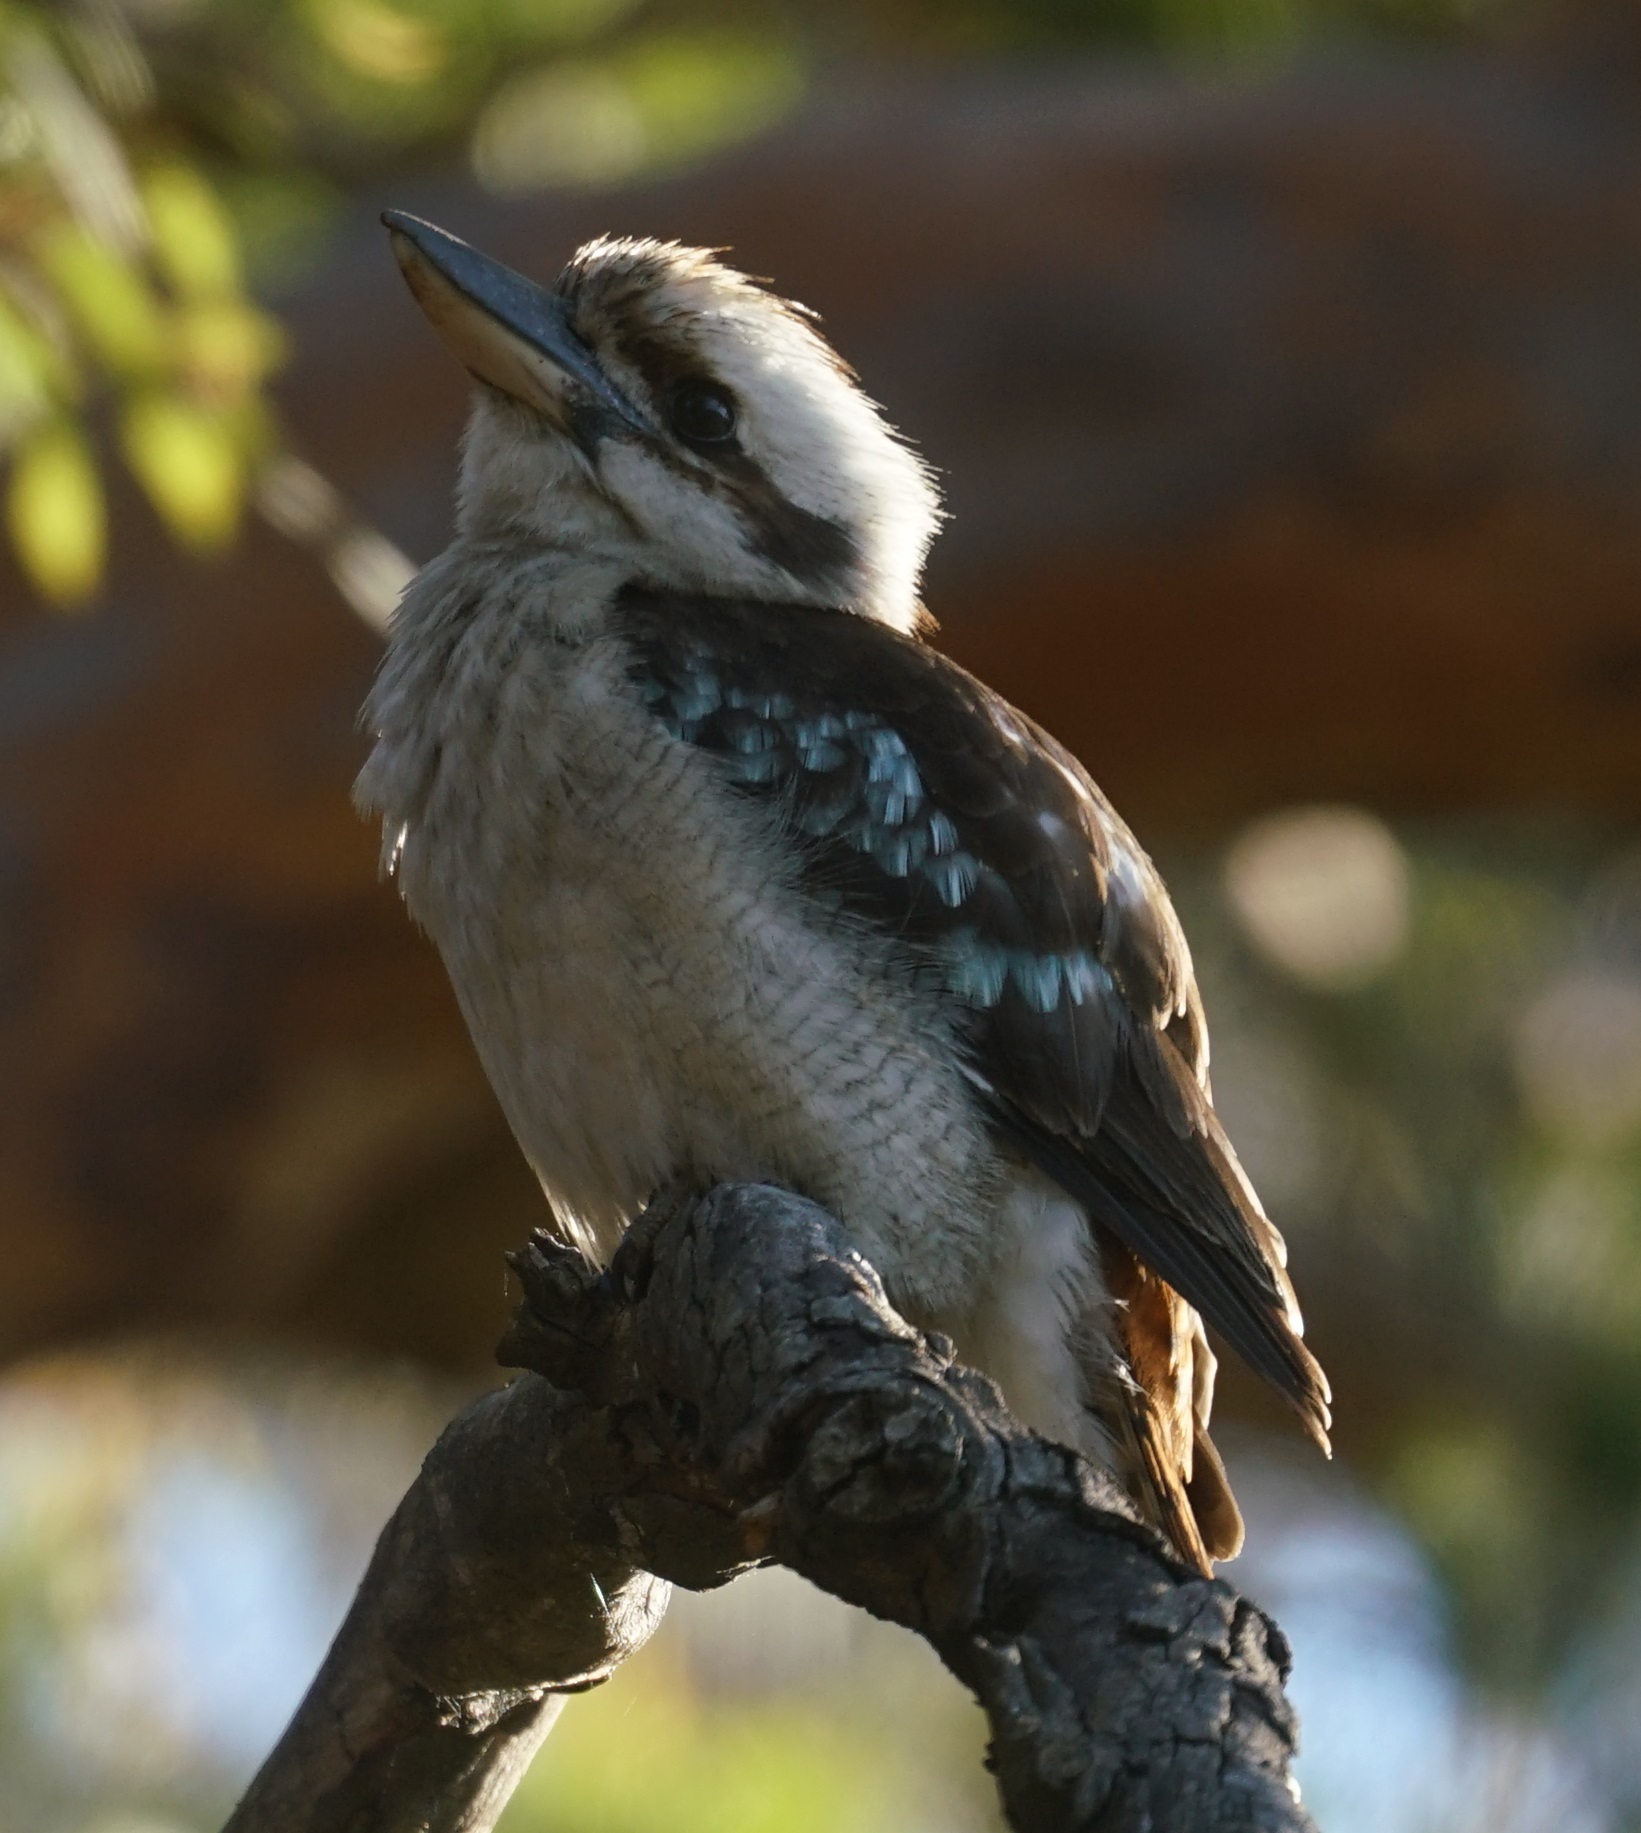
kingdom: Animalia
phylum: Chordata
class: Aves
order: Coraciiformes
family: Alcedinidae
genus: Dacelo
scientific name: Dacelo novaeguineae
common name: Laughing kookaburra
